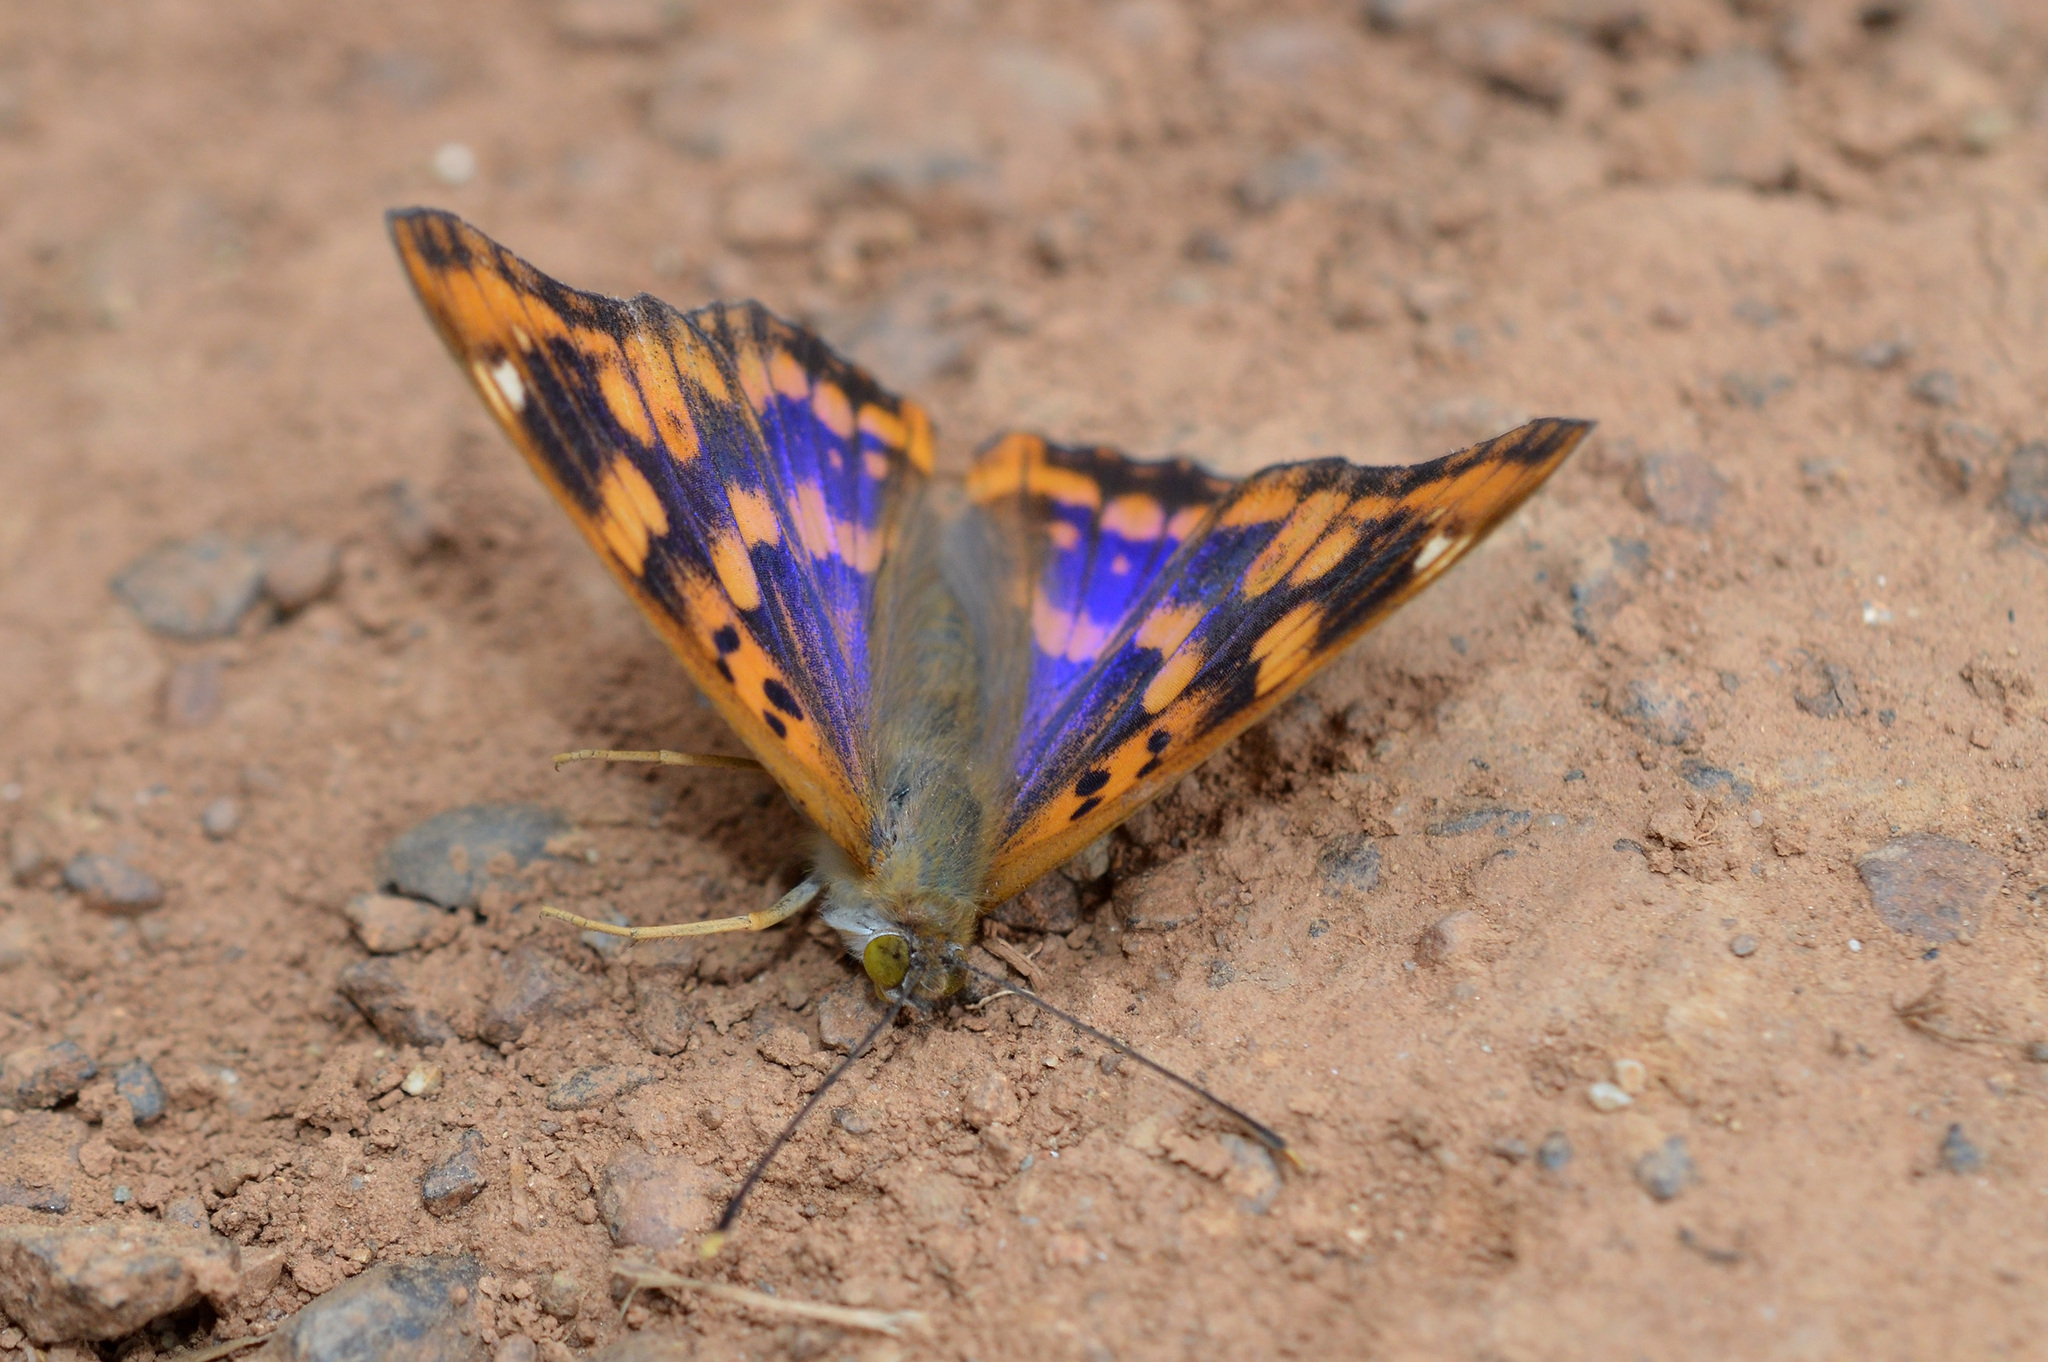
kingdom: Animalia
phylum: Arthropoda
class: Insecta
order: Lepidoptera
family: Nymphalidae
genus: Apatura
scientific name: Apatura ilia
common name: Lesser purple emperor
